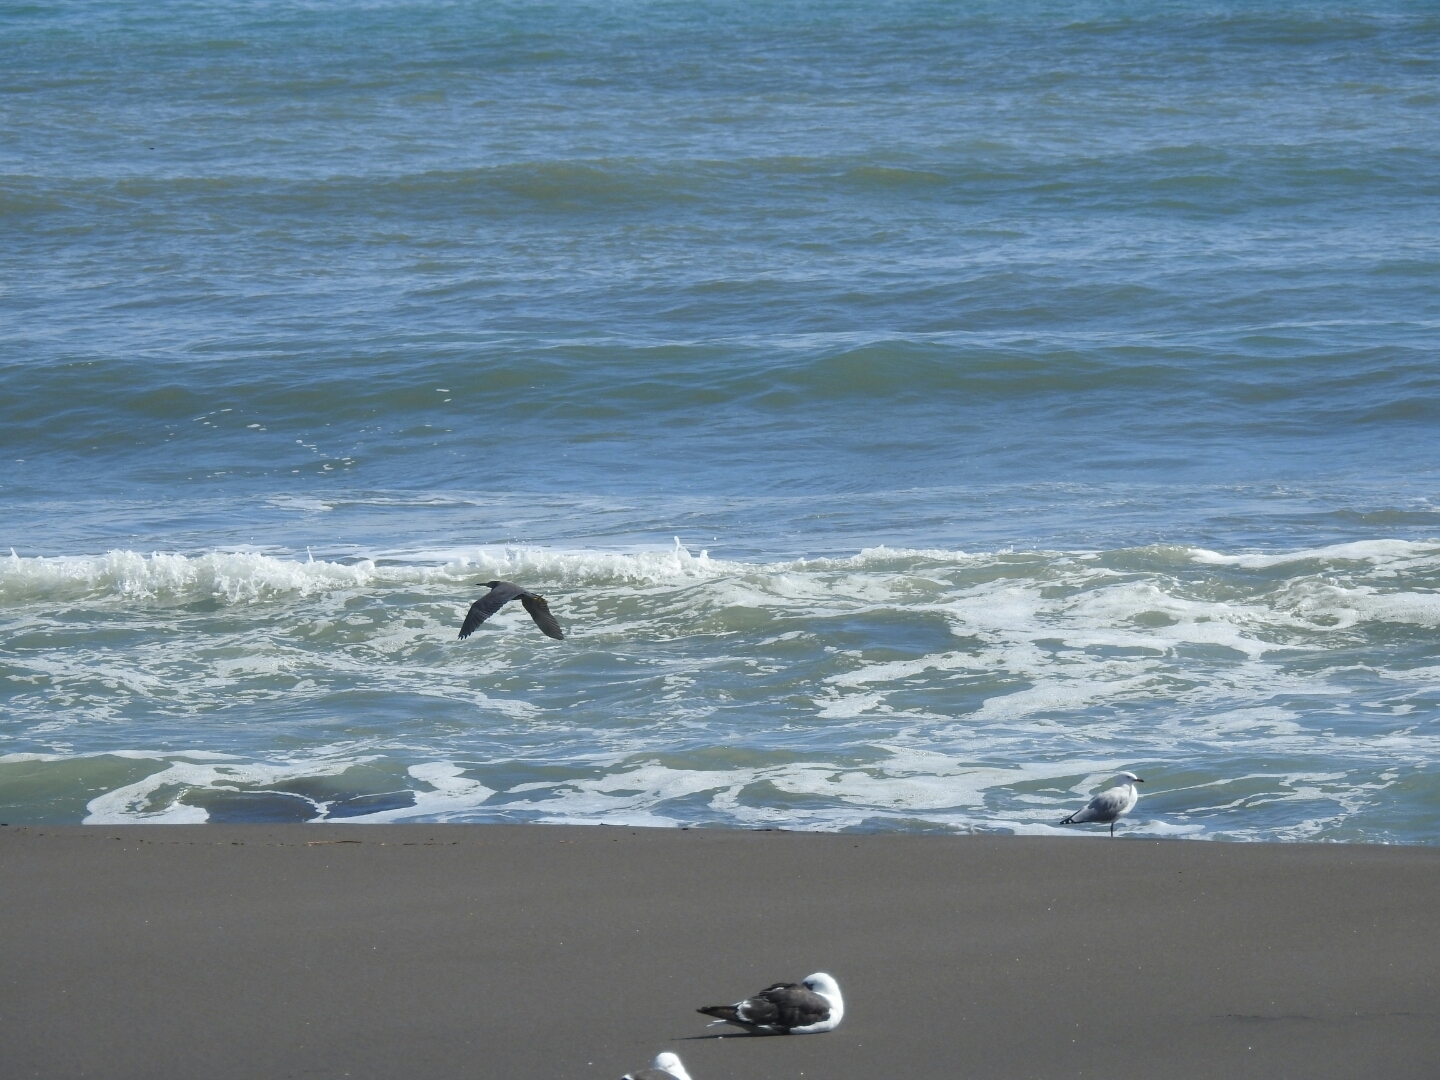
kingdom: Animalia
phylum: Chordata
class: Aves
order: Pelecaniformes
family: Ardeidae
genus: Egretta
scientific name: Egretta sacra
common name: Pacific reef heron
